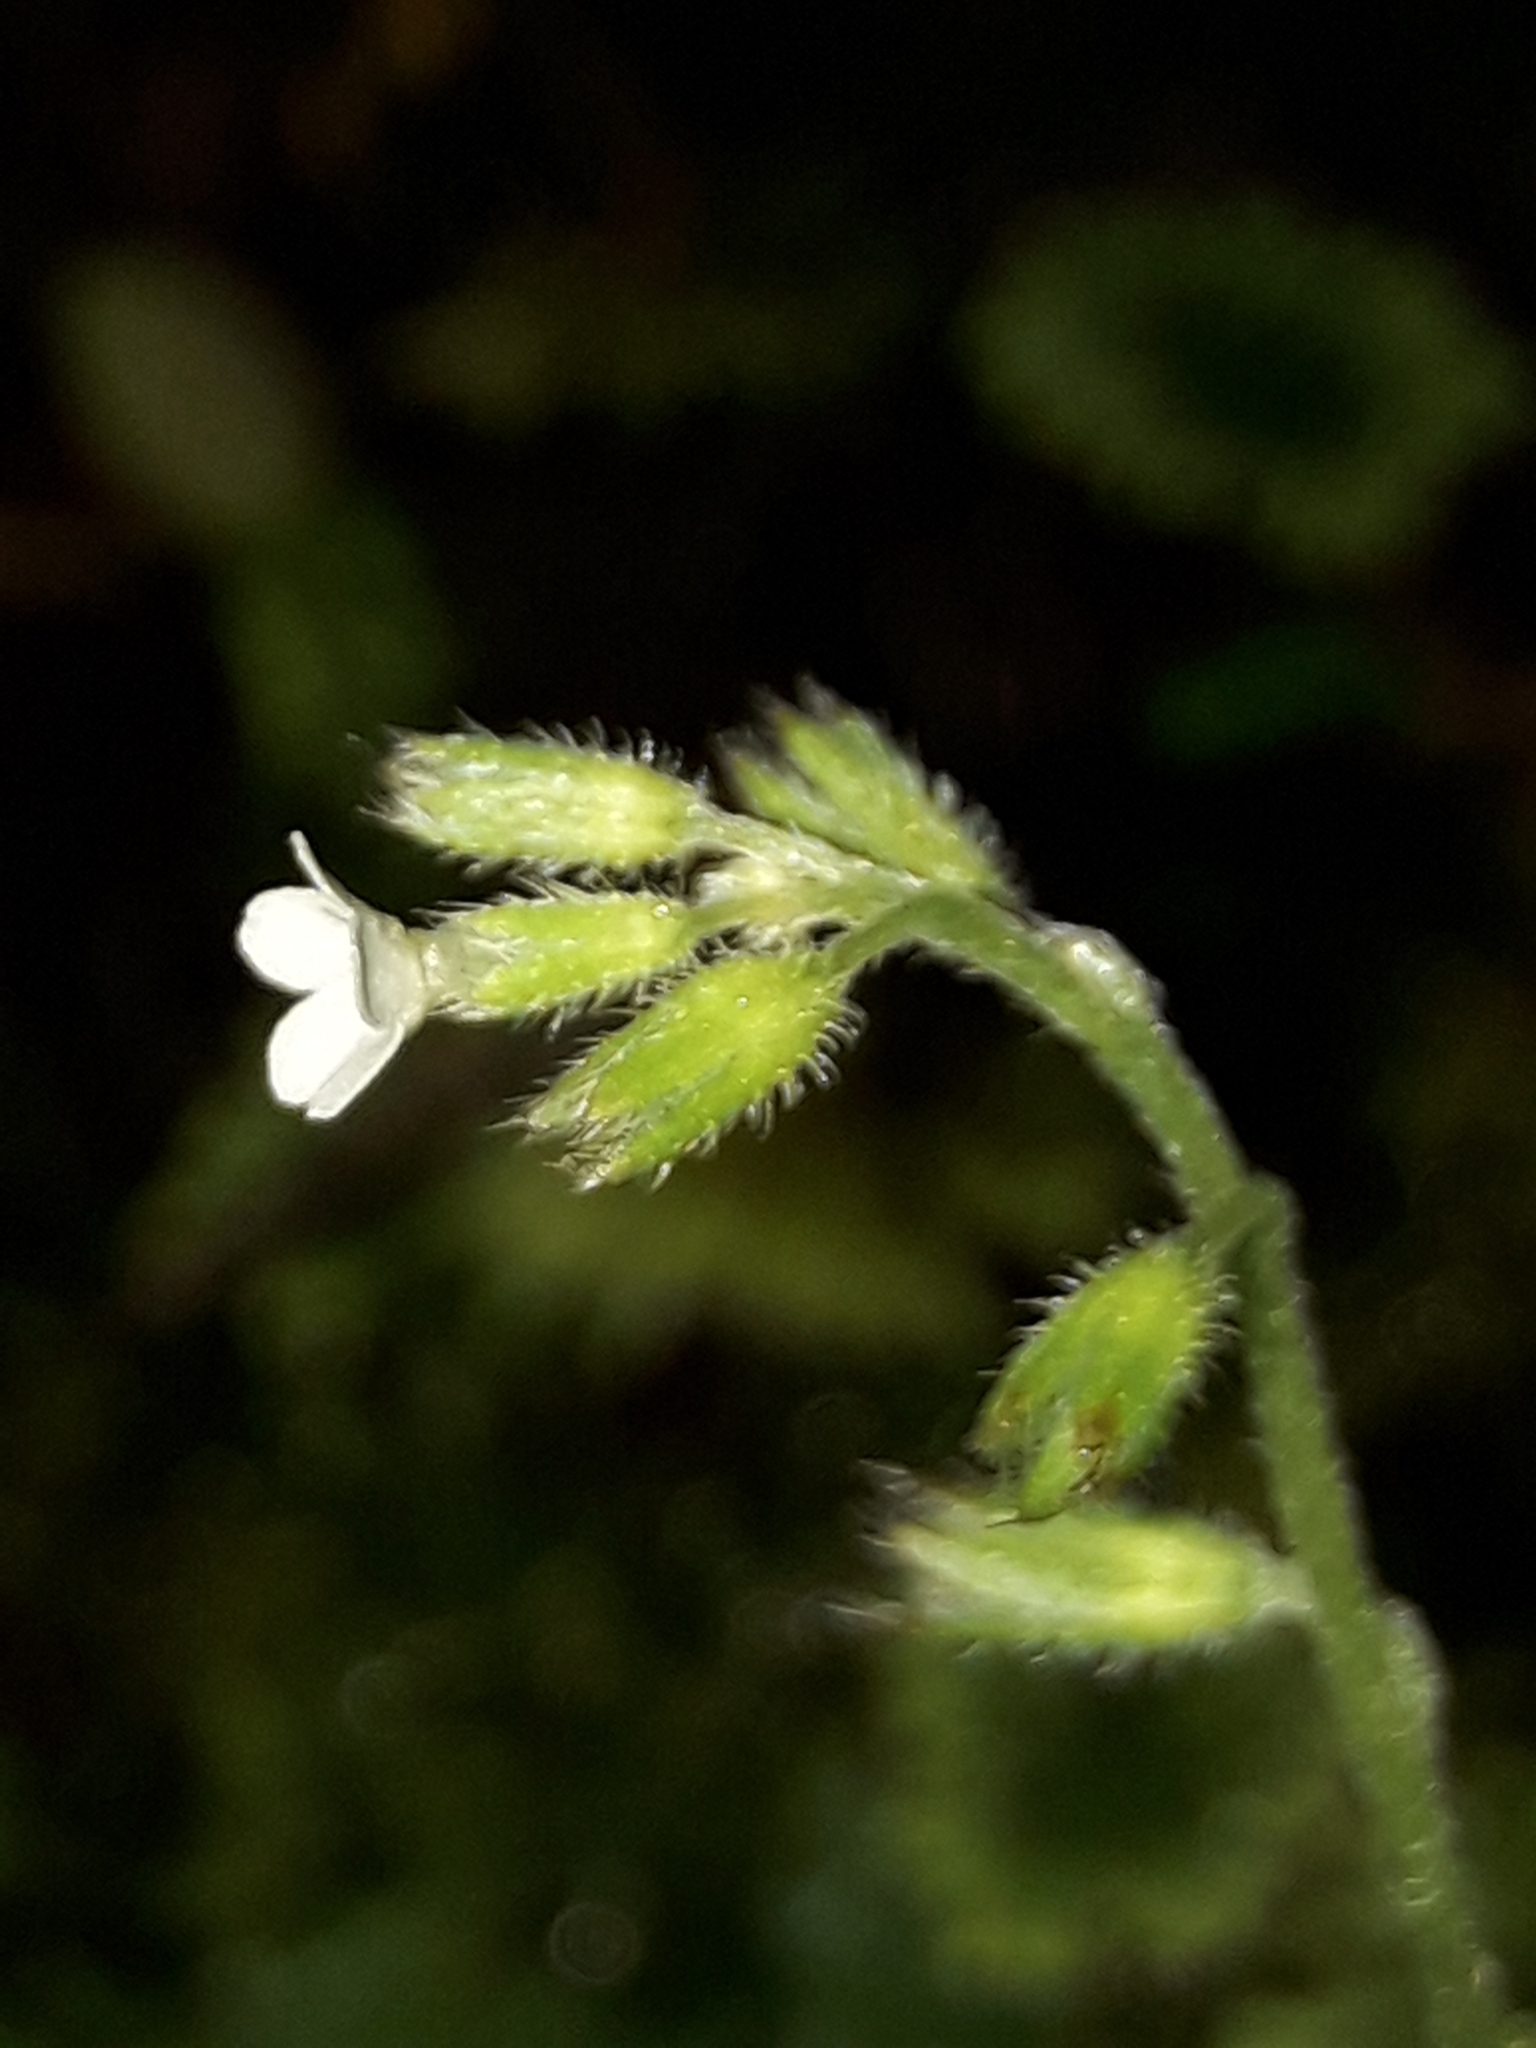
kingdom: Plantae
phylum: Tracheophyta
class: Magnoliopsida
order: Boraginales
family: Boraginaceae
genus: Myosotis
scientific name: Myosotis forsteri
